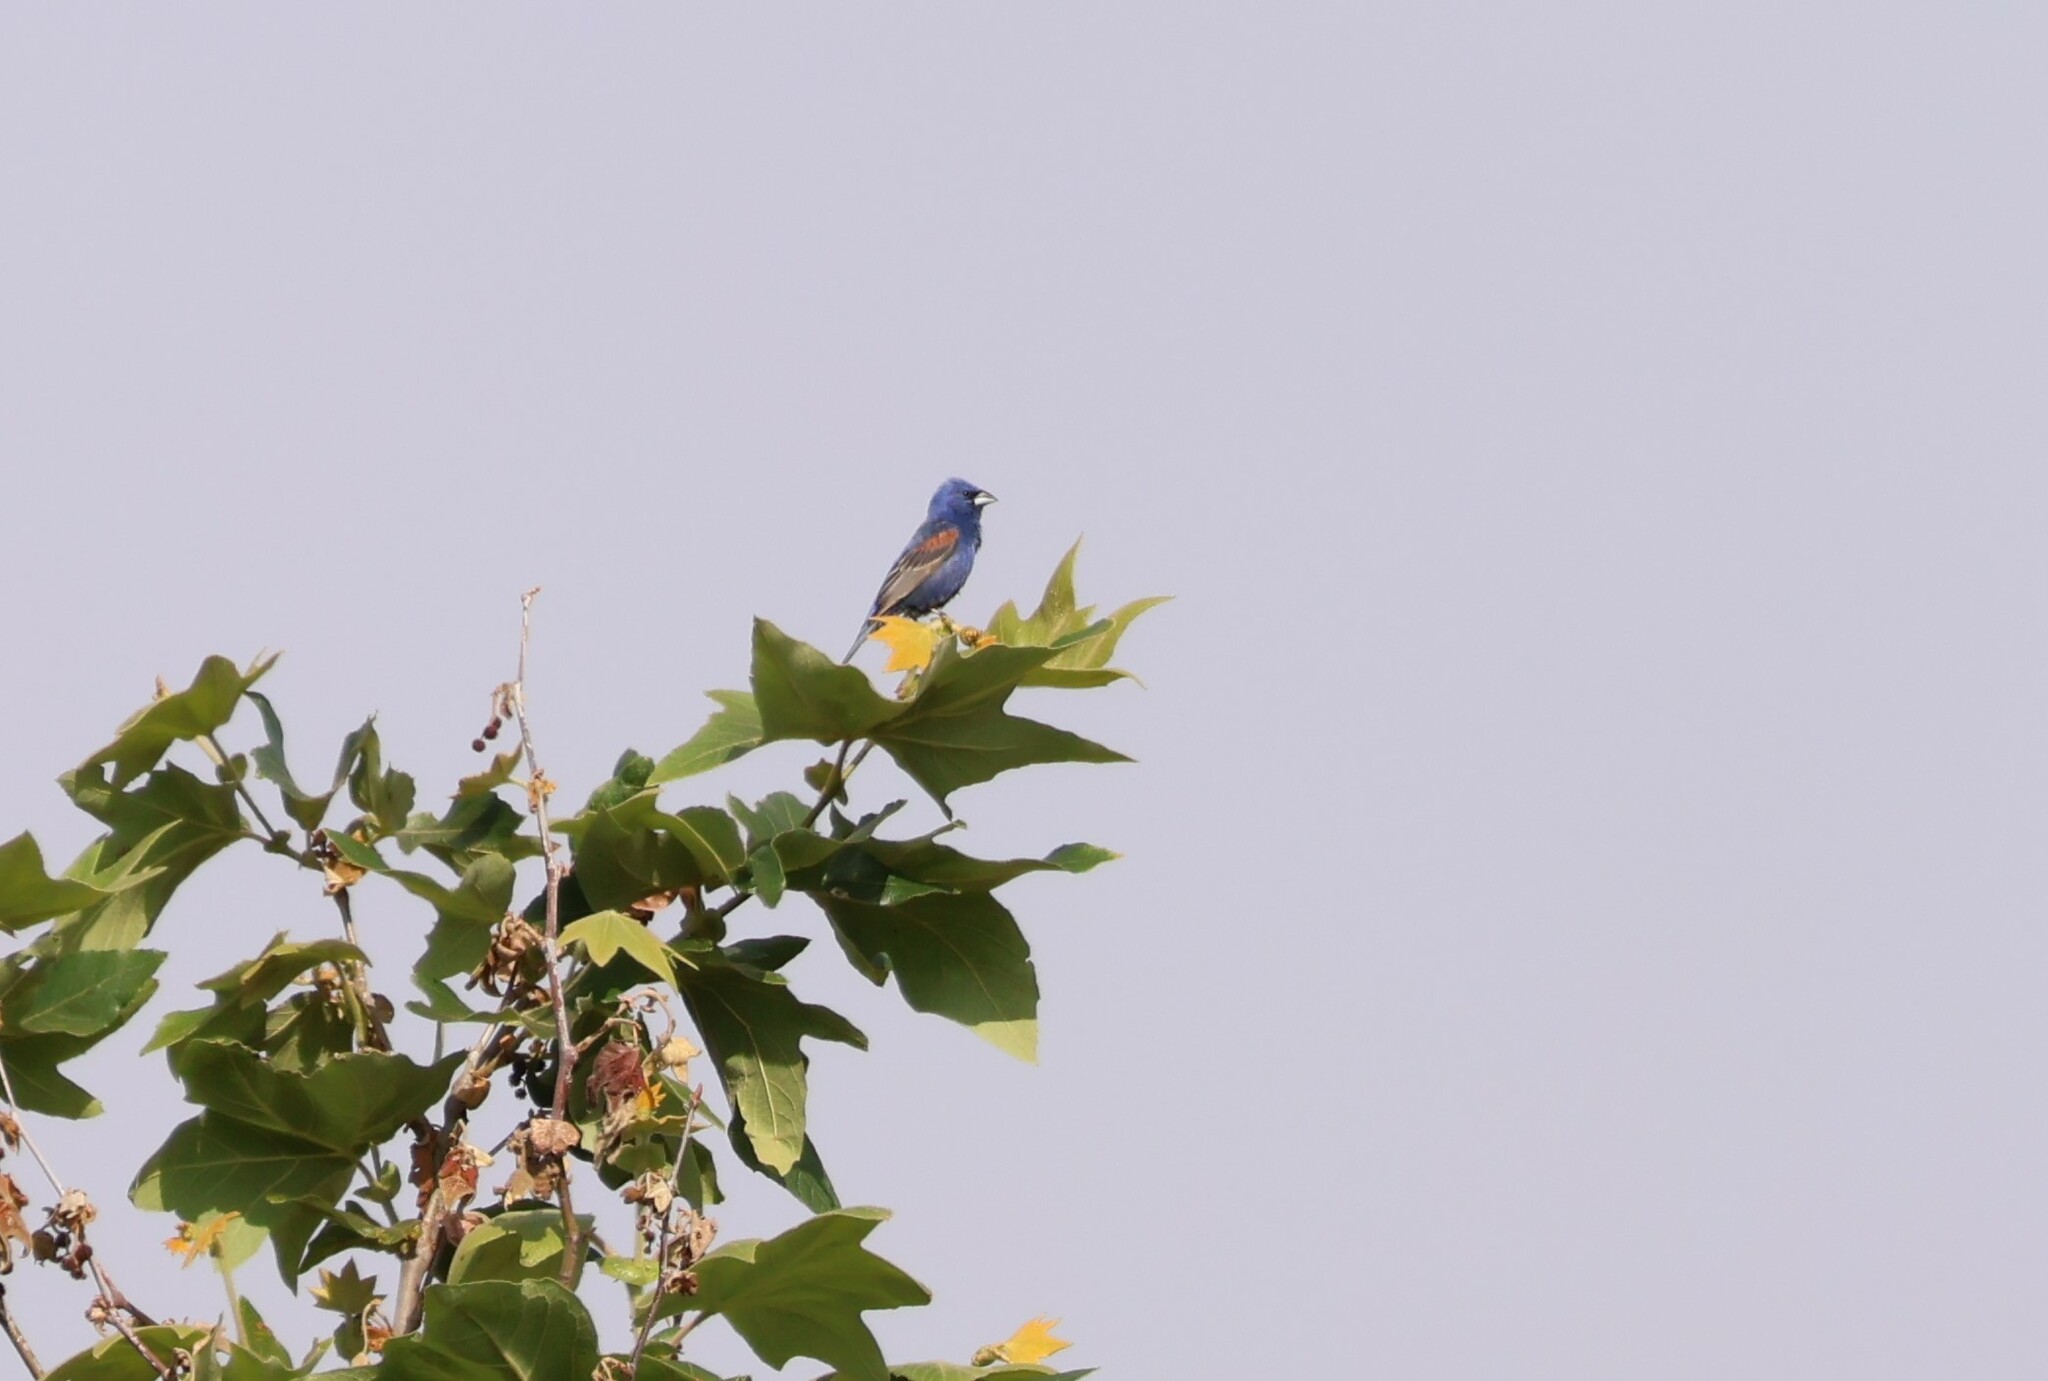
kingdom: Animalia
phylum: Chordata
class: Aves
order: Passeriformes
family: Cardinalidae
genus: Passerina
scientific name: Passerina caerulea
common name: Blue grosbeak
